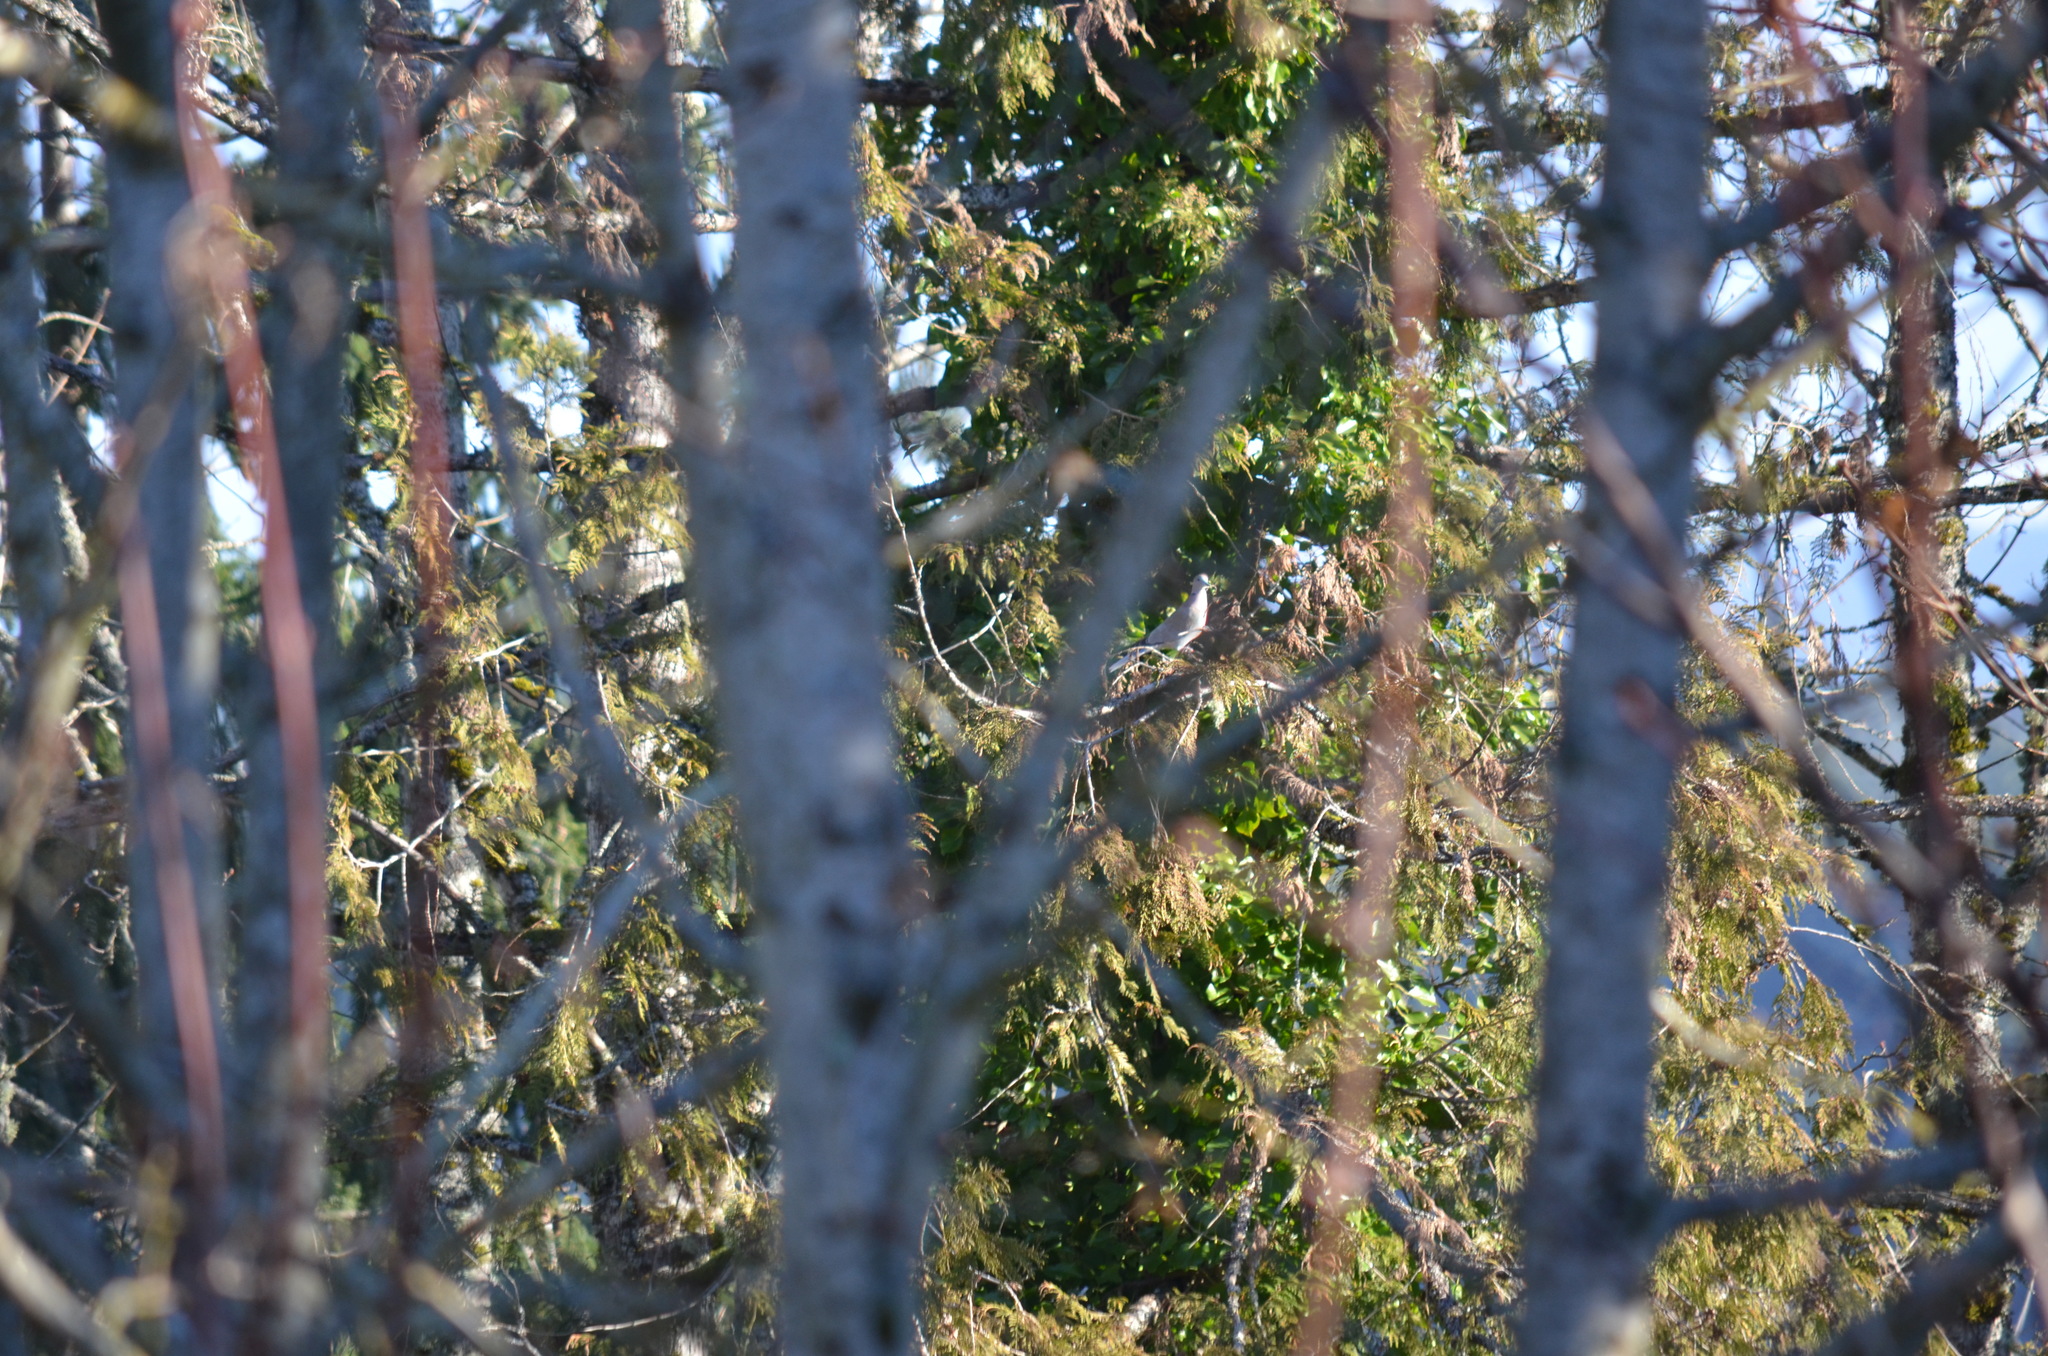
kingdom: Animalia
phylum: Chordata
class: Aves
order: Columbiformes
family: Columbidae
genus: Streptopelia
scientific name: Streptopelia decaocto
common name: Eurasian collared dove
